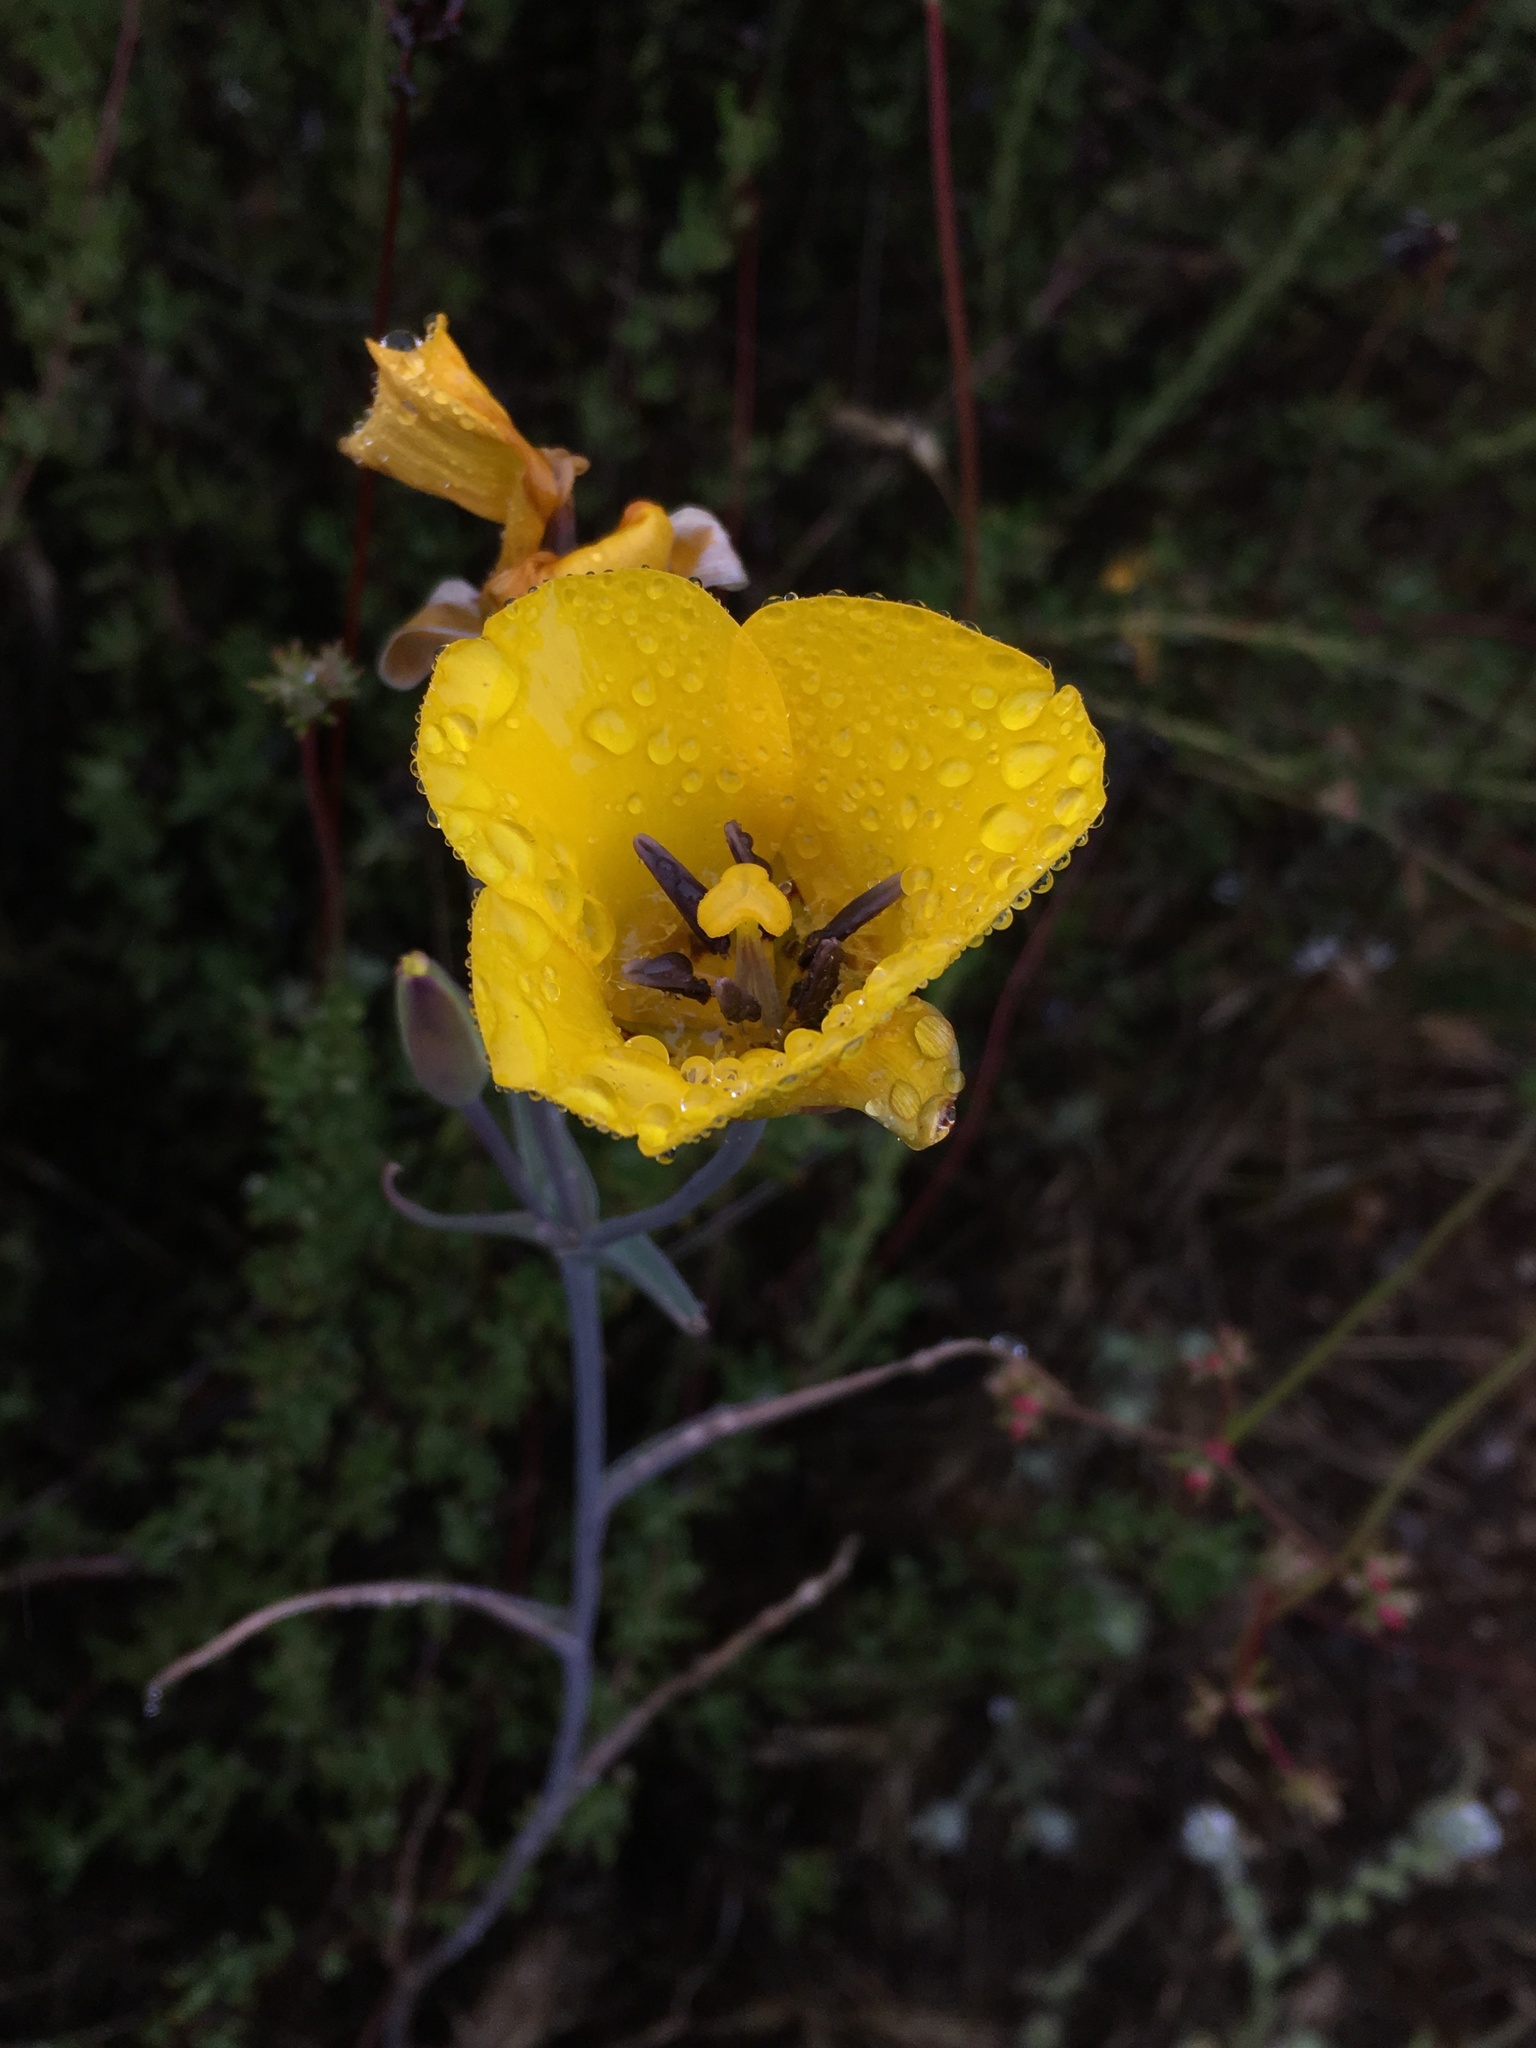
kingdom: Plantae
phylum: Tracheophyta
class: Liliopsida
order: Liliales
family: Liliaceae
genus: Calochortus
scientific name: Calochortus clavatus
